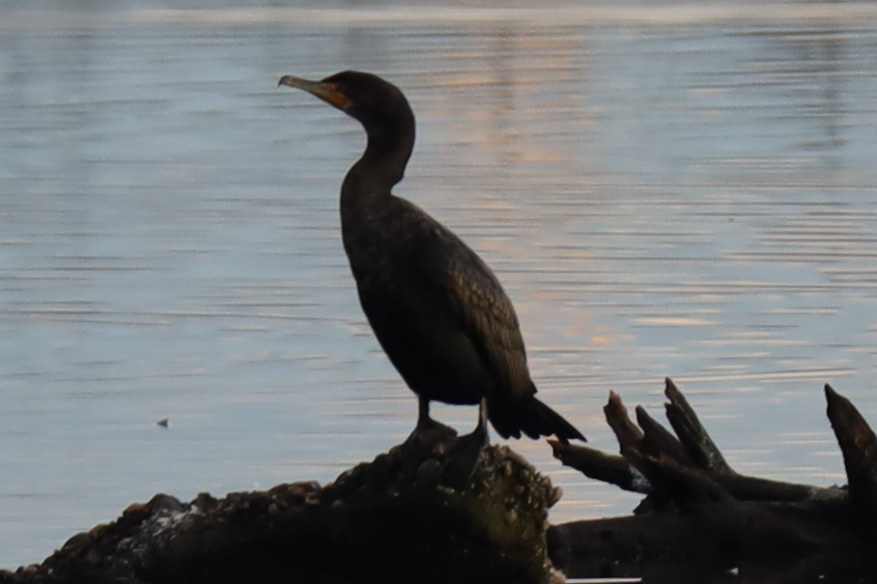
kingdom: Animalia
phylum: Chordata
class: Aves
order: Suliformes
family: Phalacrocoracidae
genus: Phalacrocorax
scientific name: Phalacrocorax auritus
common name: Double-crested cormorant
